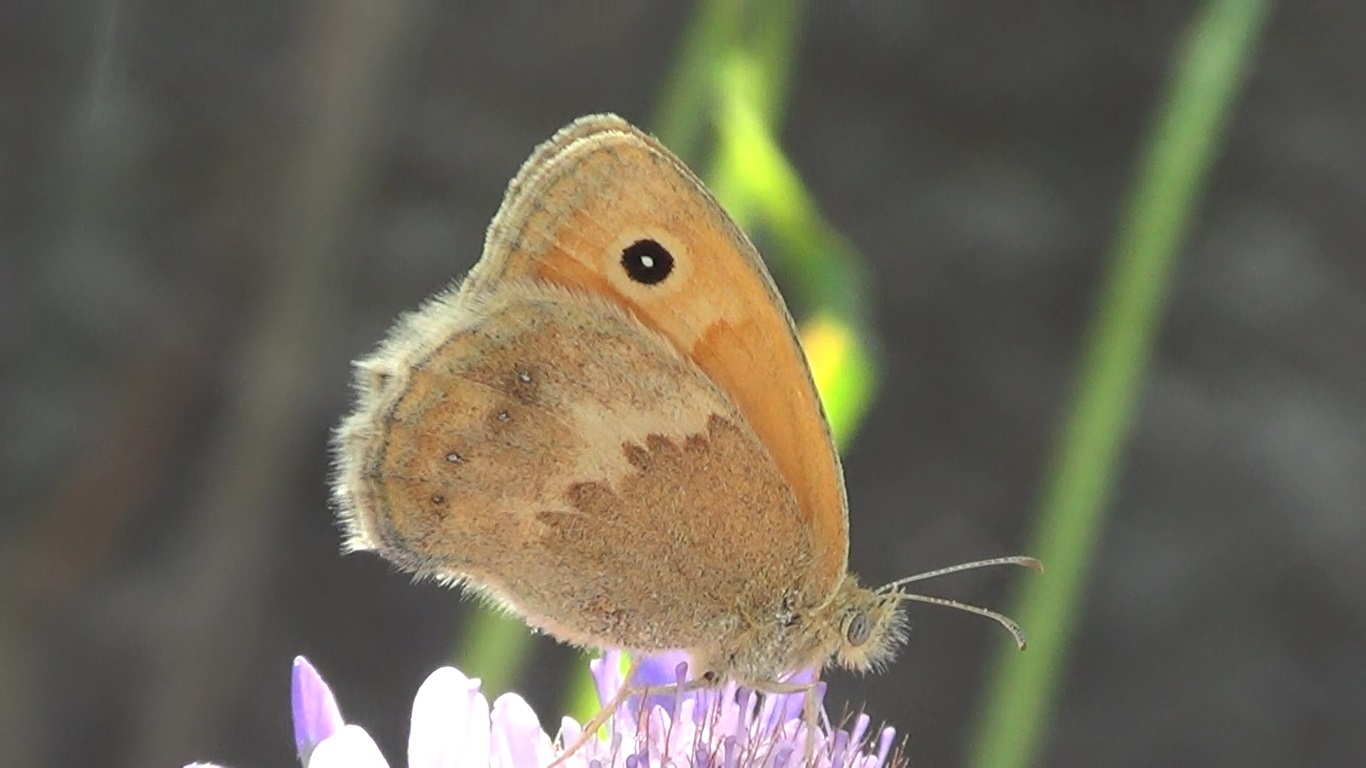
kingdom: Animalia
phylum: Arthropoda
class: Insecta
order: Lepidoptera
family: Nymphalidae
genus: Coenonympha
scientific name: Coenonympha pamphilus
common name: Small heath
